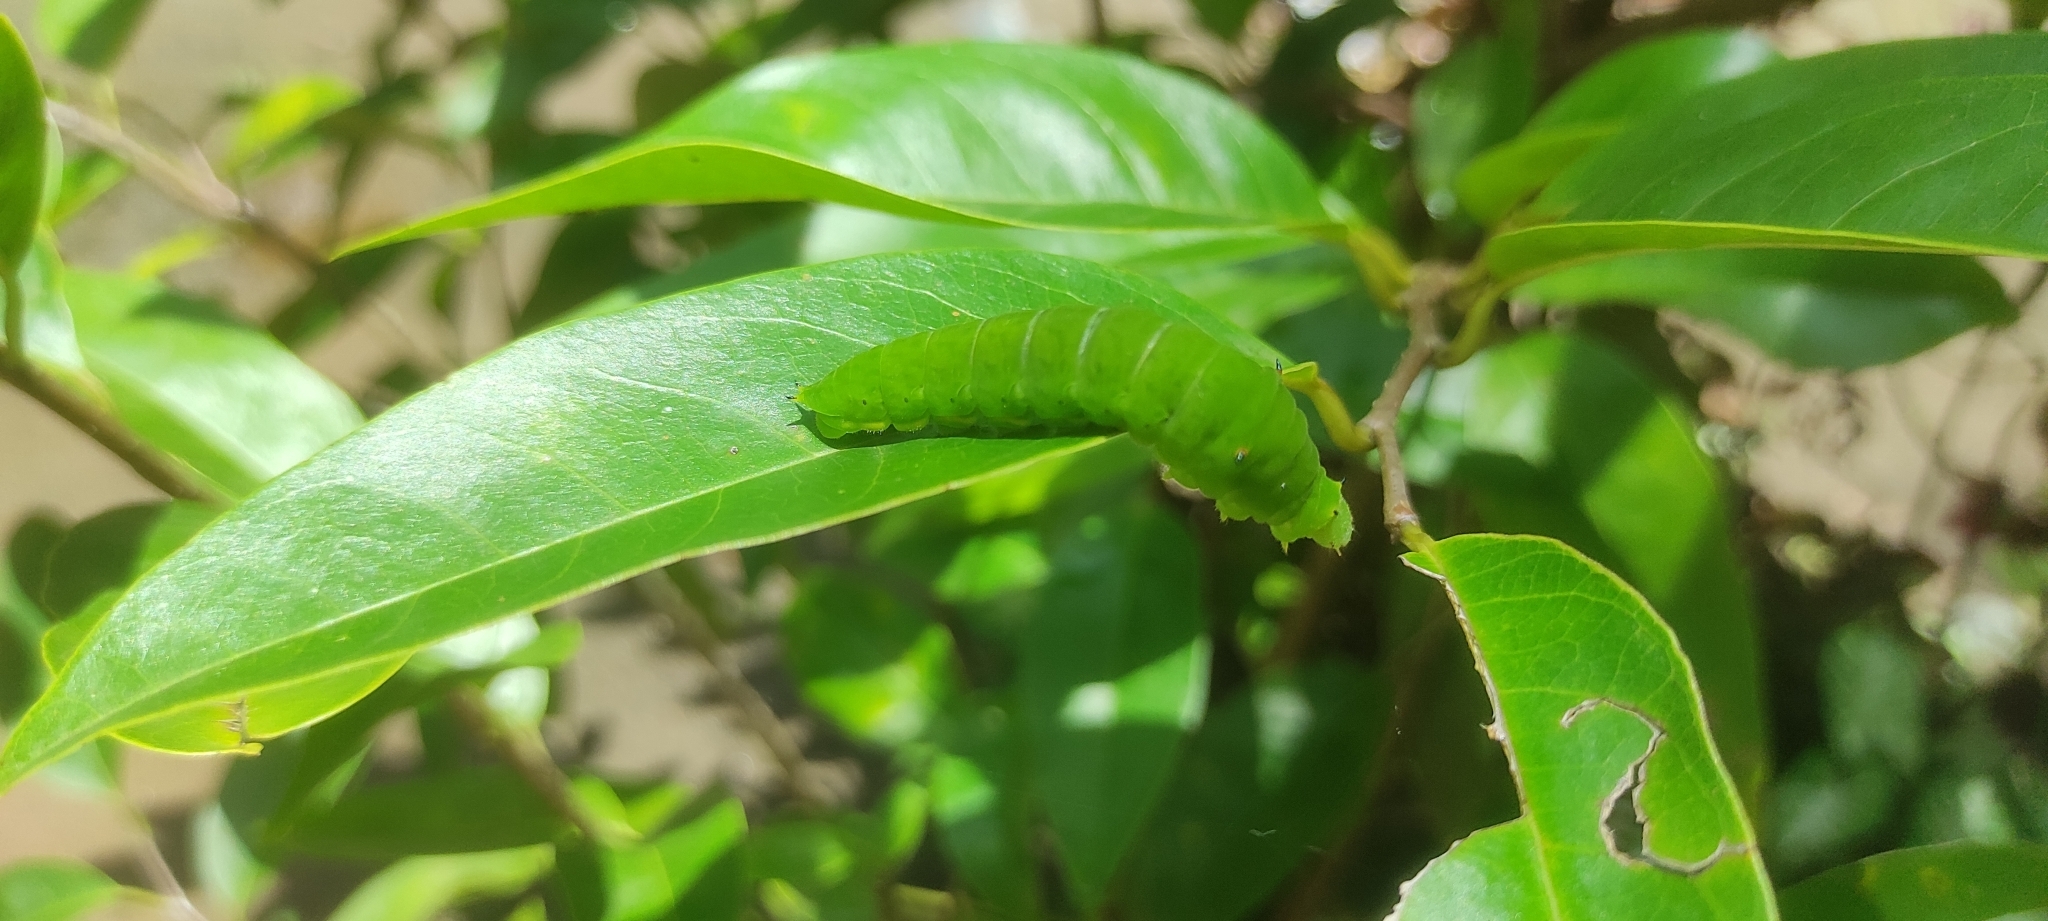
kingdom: Animalia
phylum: Arthropoda
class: Insecta
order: Lepidoptera
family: Papilionidae
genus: Graphium
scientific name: Graphium agamemnon
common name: Tailed jay
